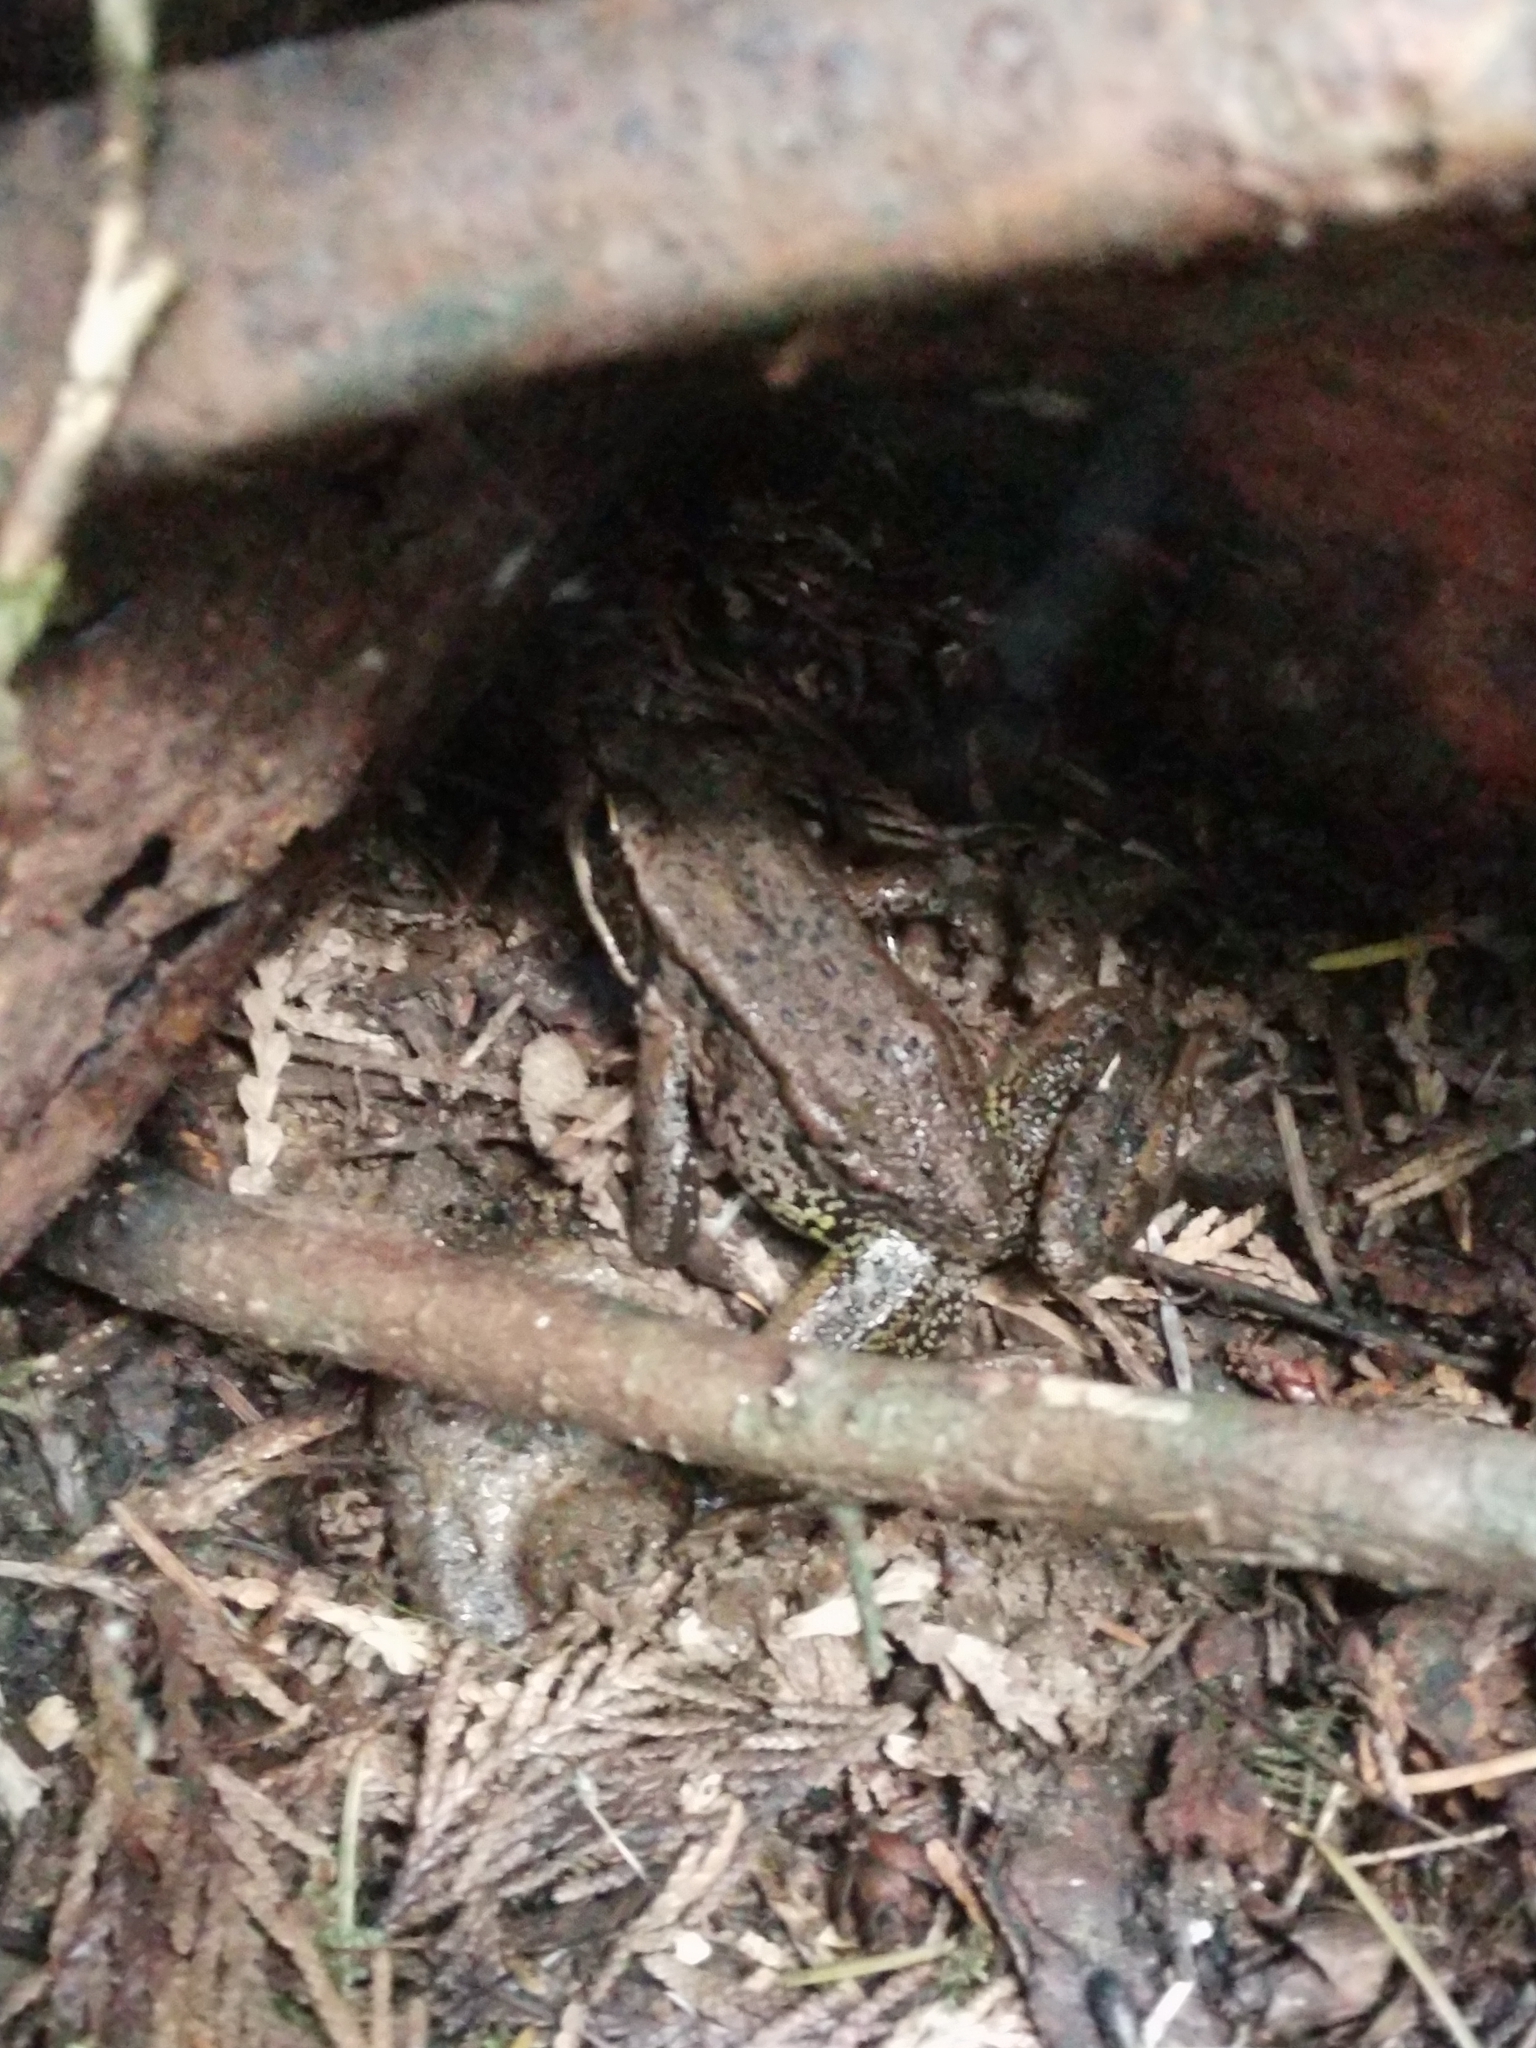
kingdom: Animalia
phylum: Chordata
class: Amphibia
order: Anura
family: Ranidae
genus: Rana
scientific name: Rana aurora
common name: Red-legged frog
